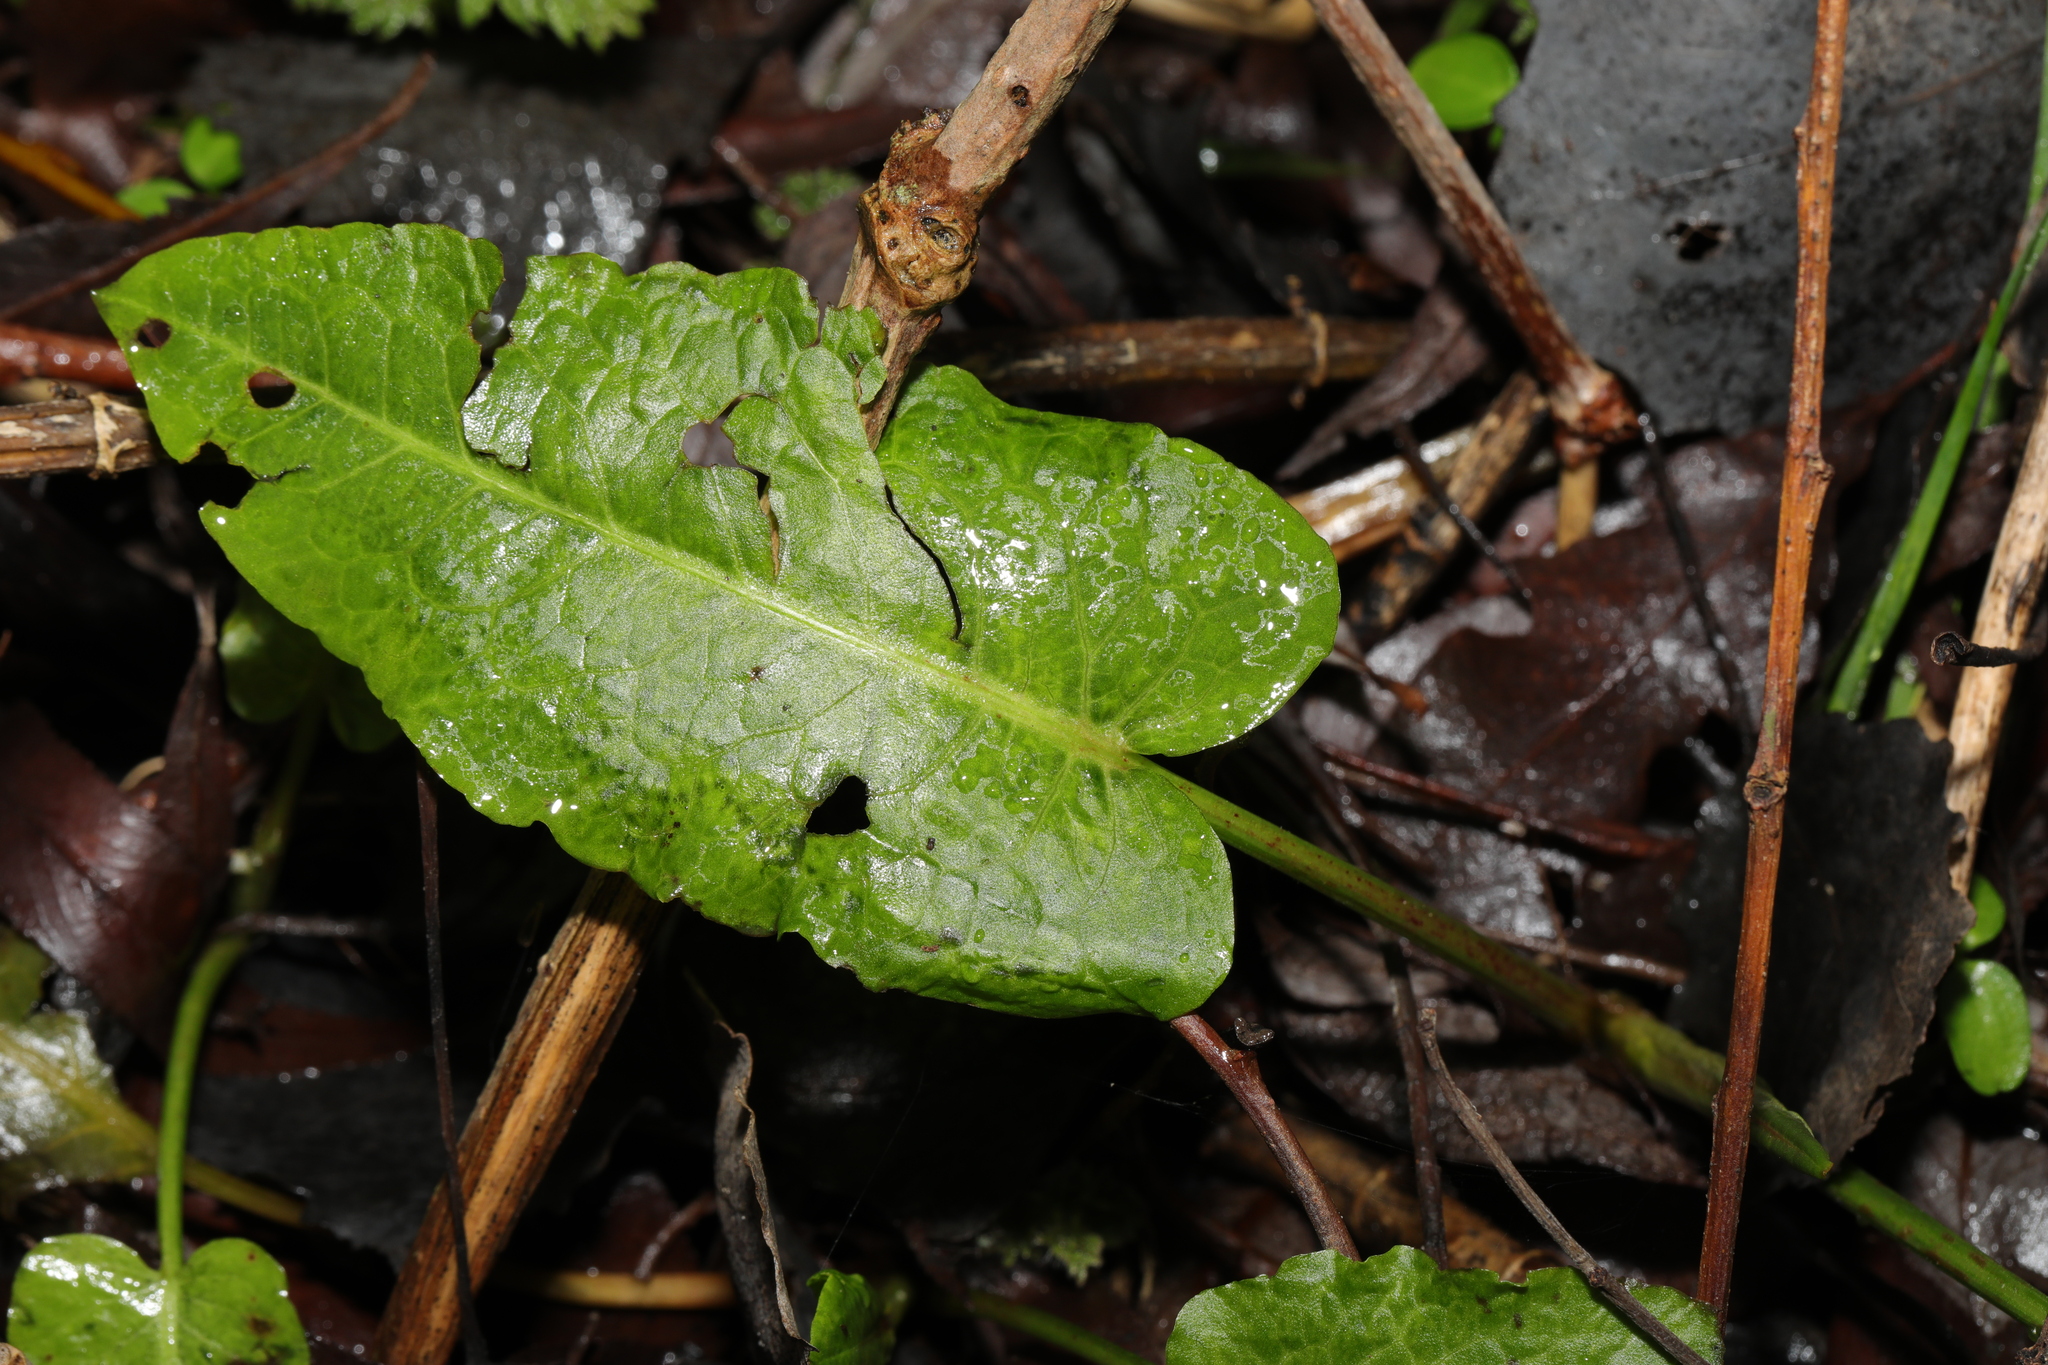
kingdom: Plantae
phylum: Tracheophyta
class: Magnoliopsida
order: Caryophyllales
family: Polygonaceae
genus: Rumex
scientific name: Rumex obtusifolius
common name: Bitter dock
